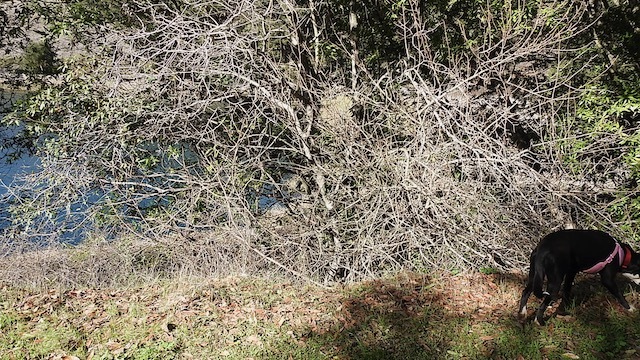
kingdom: Plantae
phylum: Tracheophyta
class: Magnoliopsida
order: Sapindales
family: Sapindaceae
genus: Aesculus
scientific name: Aesculus californica
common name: California buckeye
